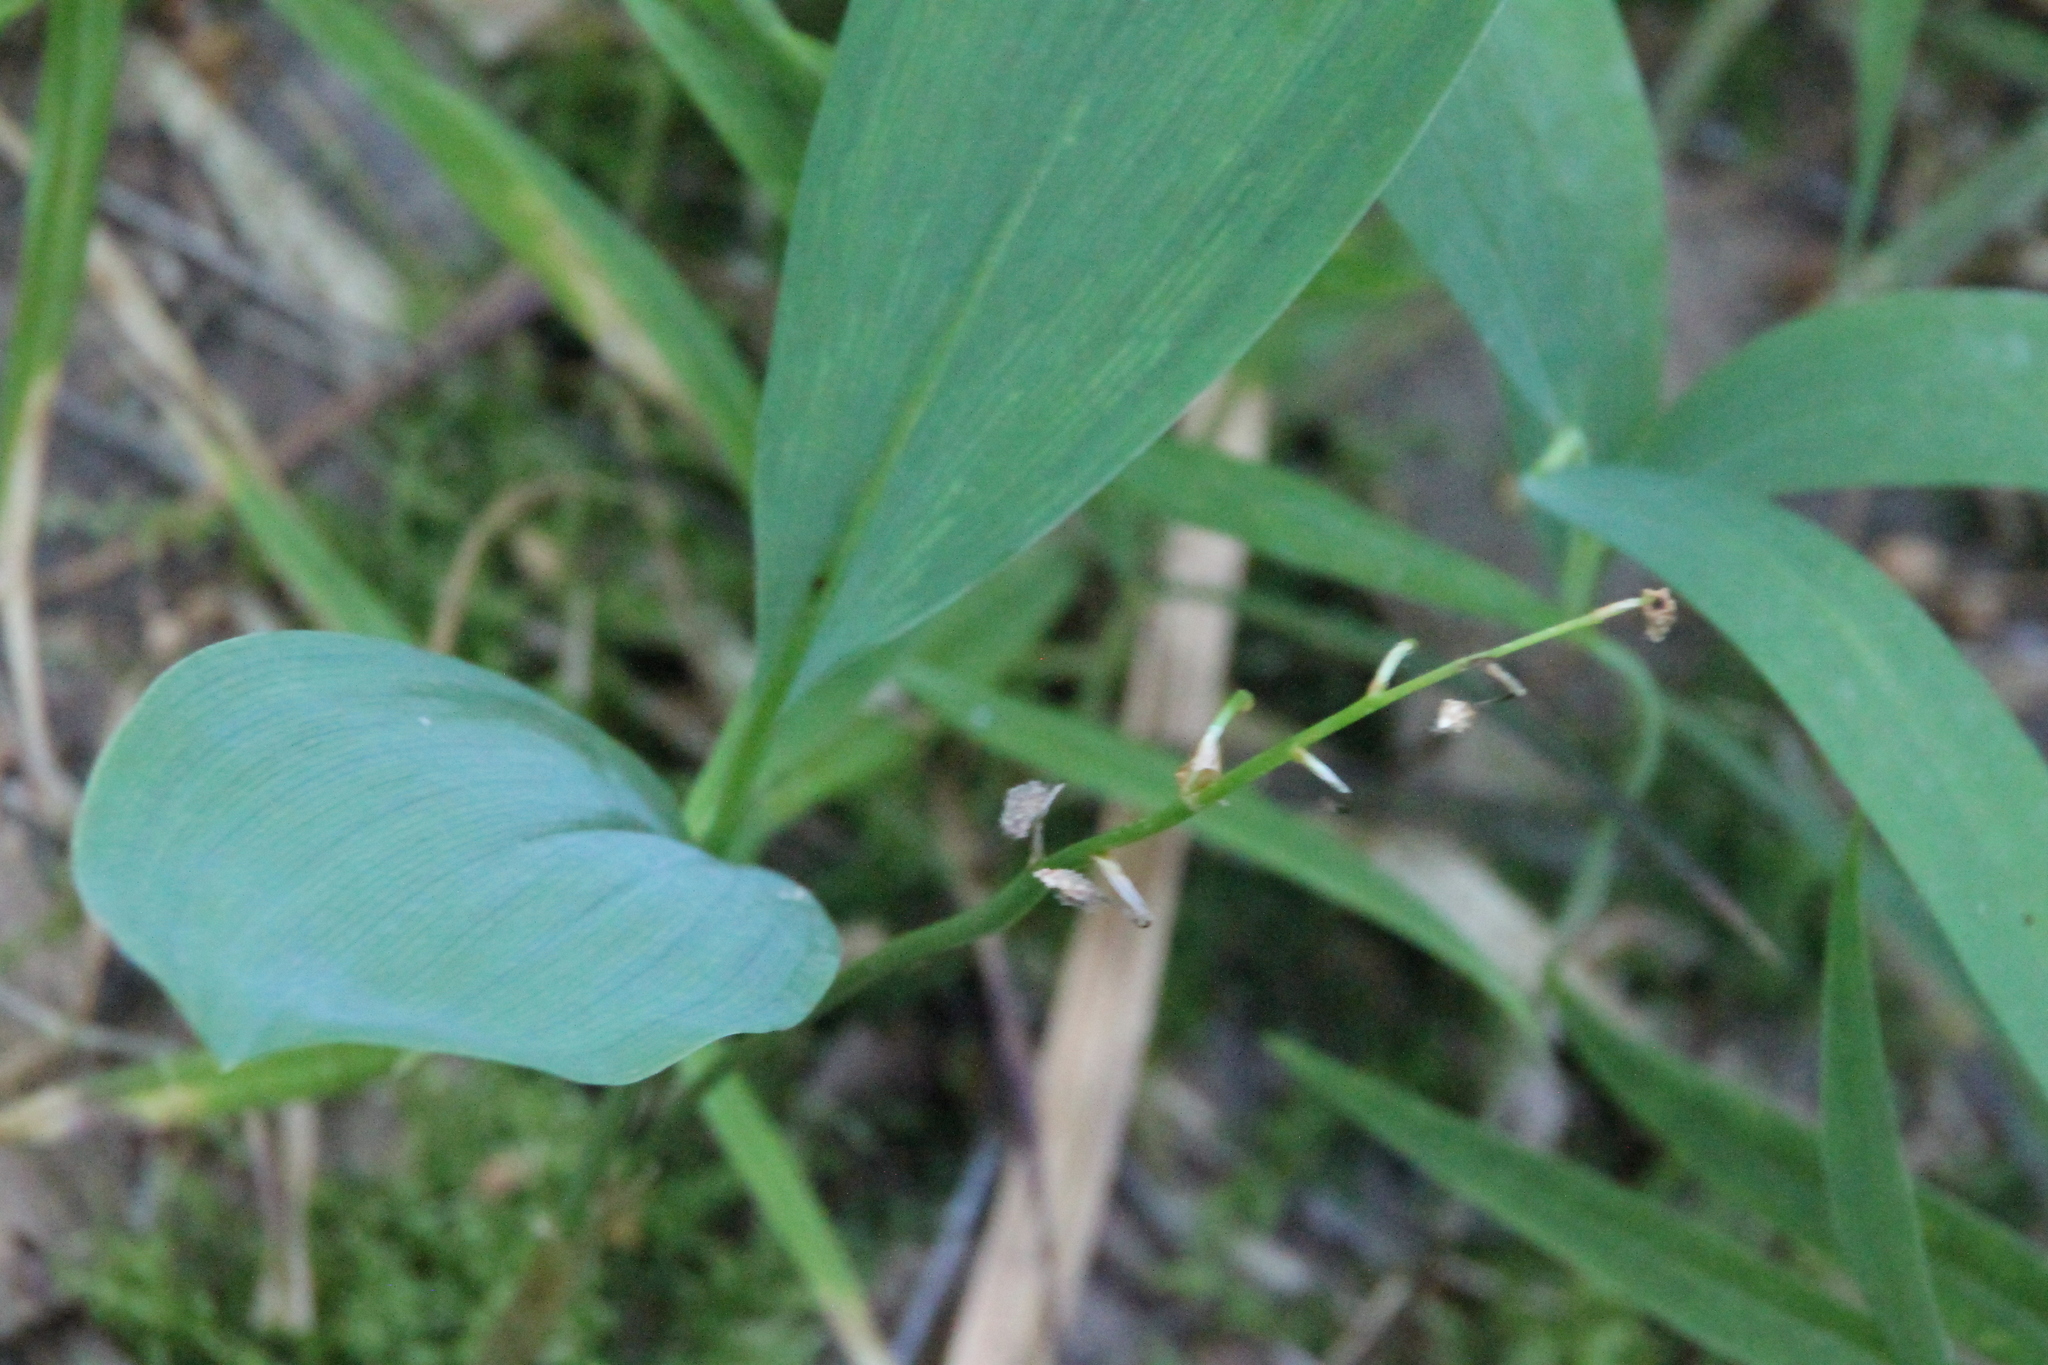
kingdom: Plantae
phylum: Tracheophyta
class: Liliopsida
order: Asparagales
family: Asparagaceae
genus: Convallaria
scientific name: Convallaria majalis
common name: Lily-of-the-valley
